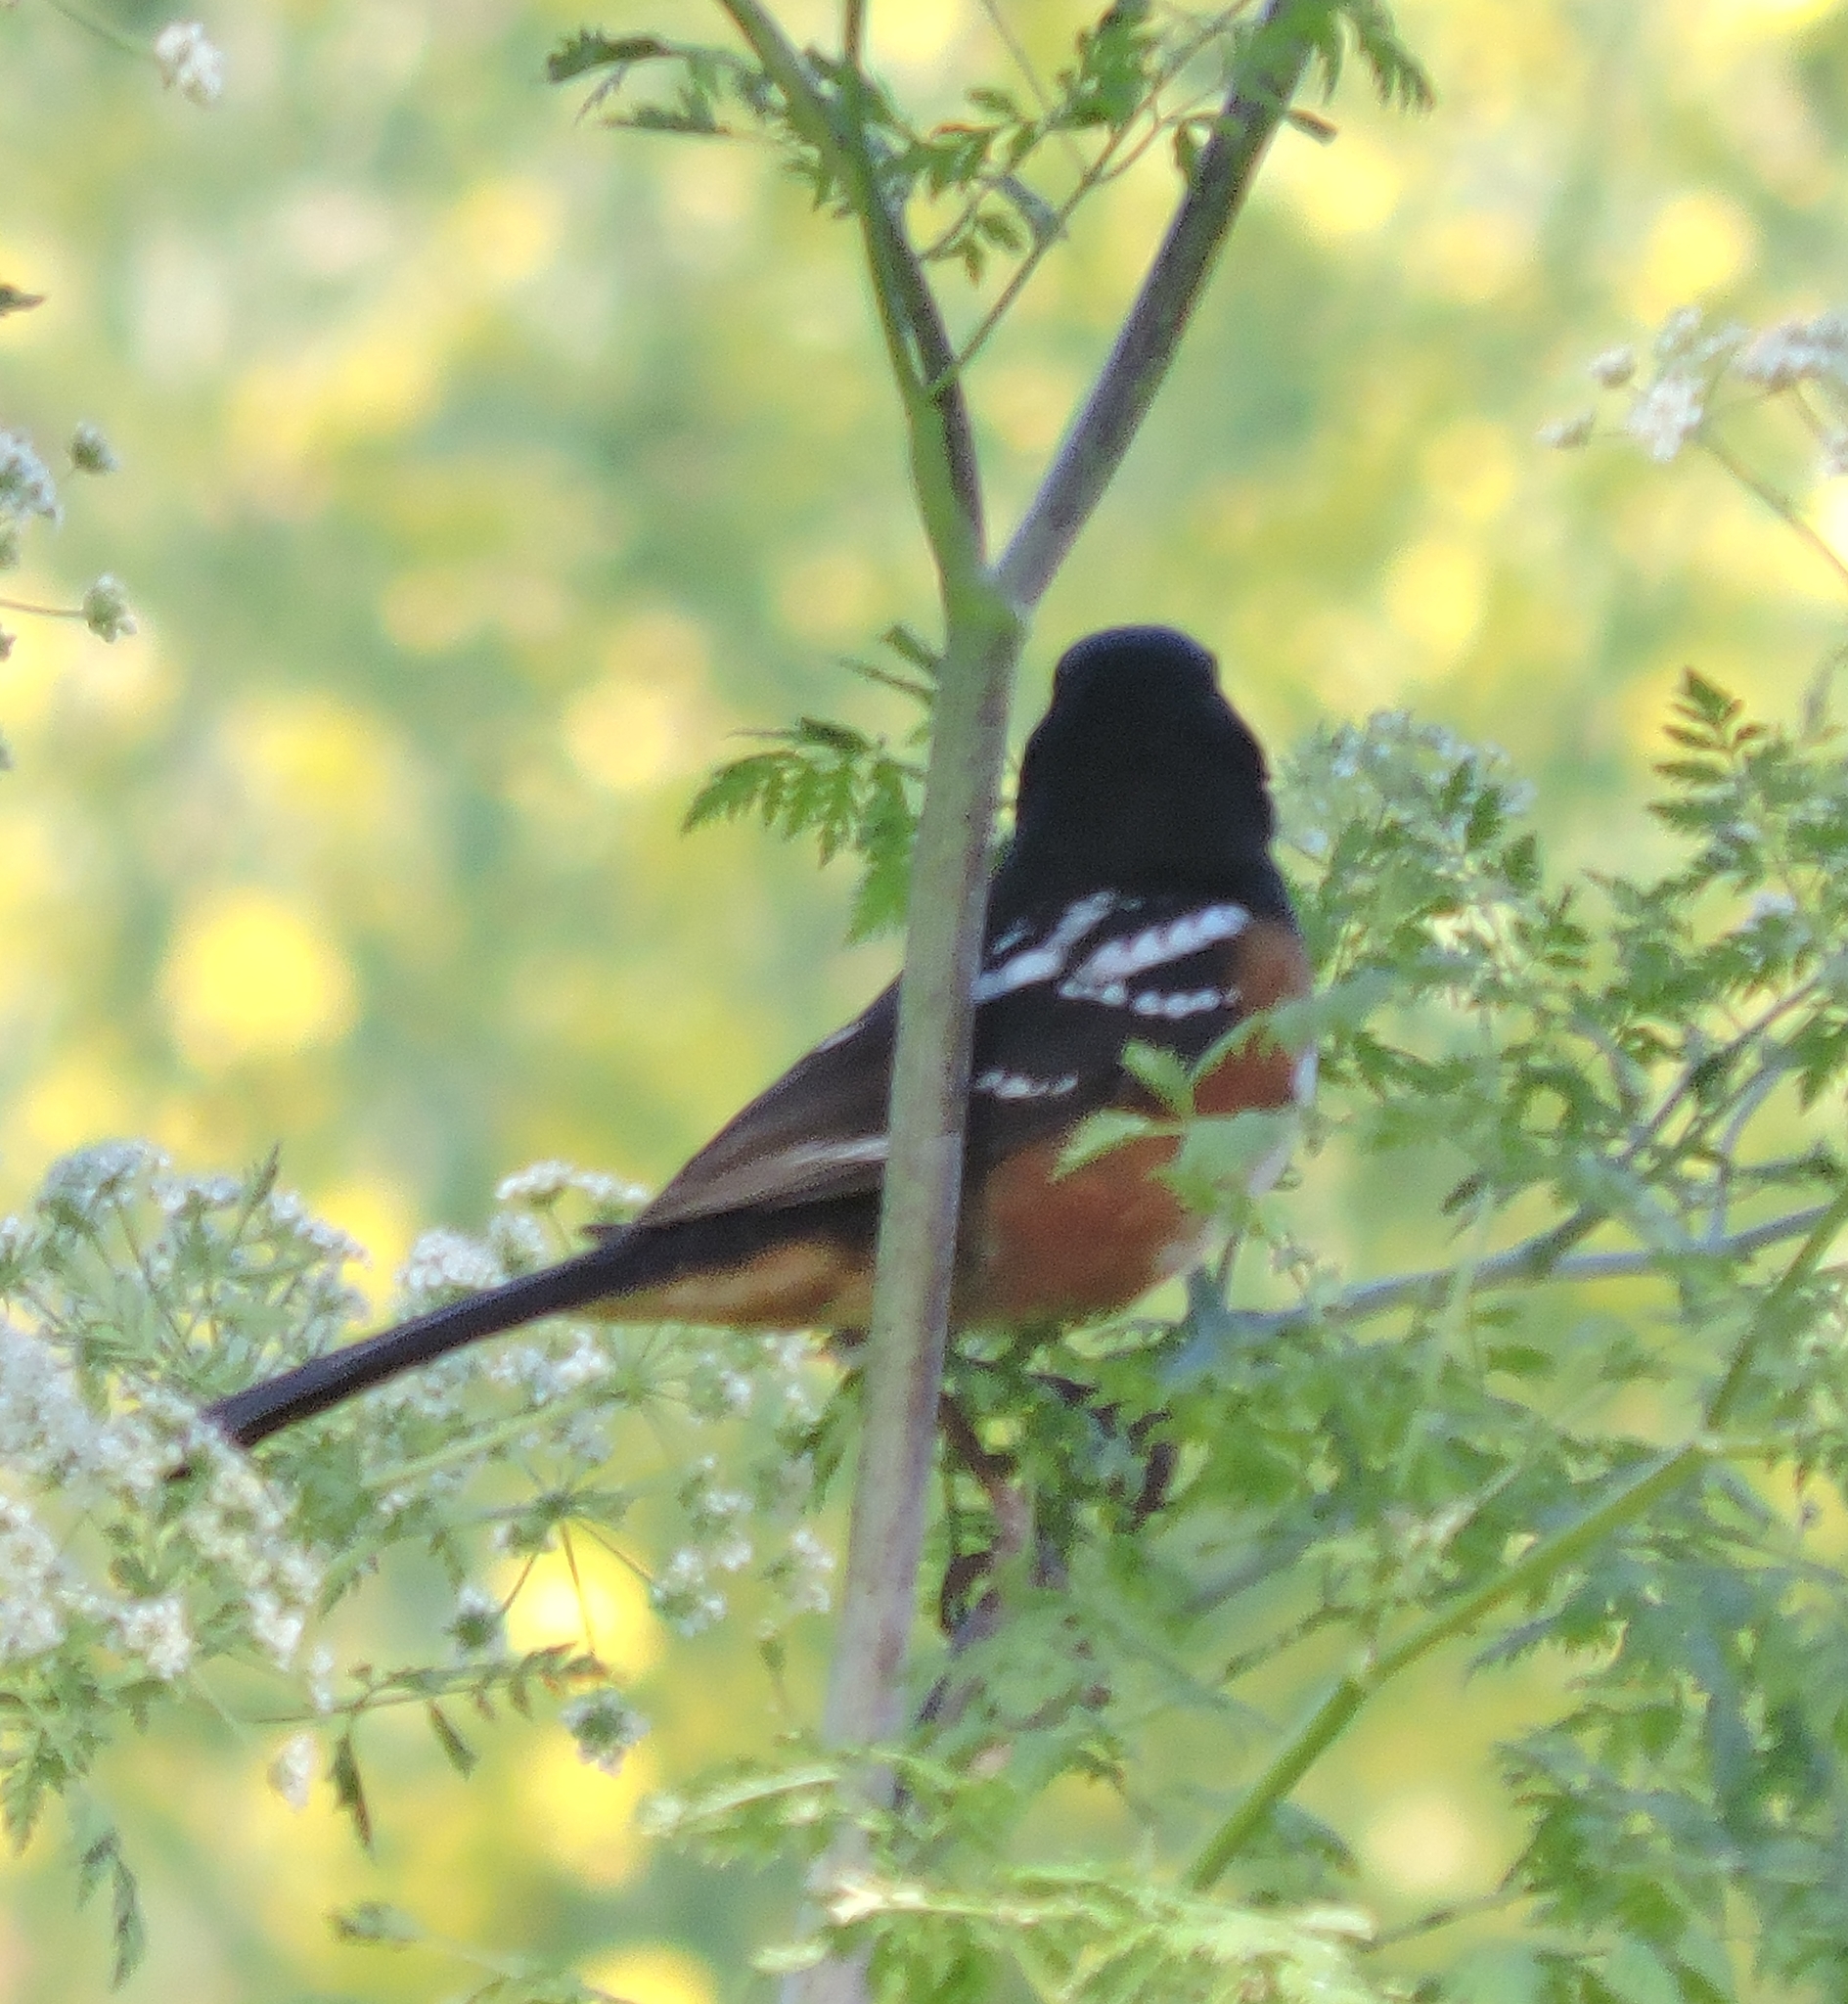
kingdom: Animalia
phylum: Chordata
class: Aves
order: Passeriformes
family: Passerellidae
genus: Pipilo
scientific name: Pipilo maculatus
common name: Spotted towhee
